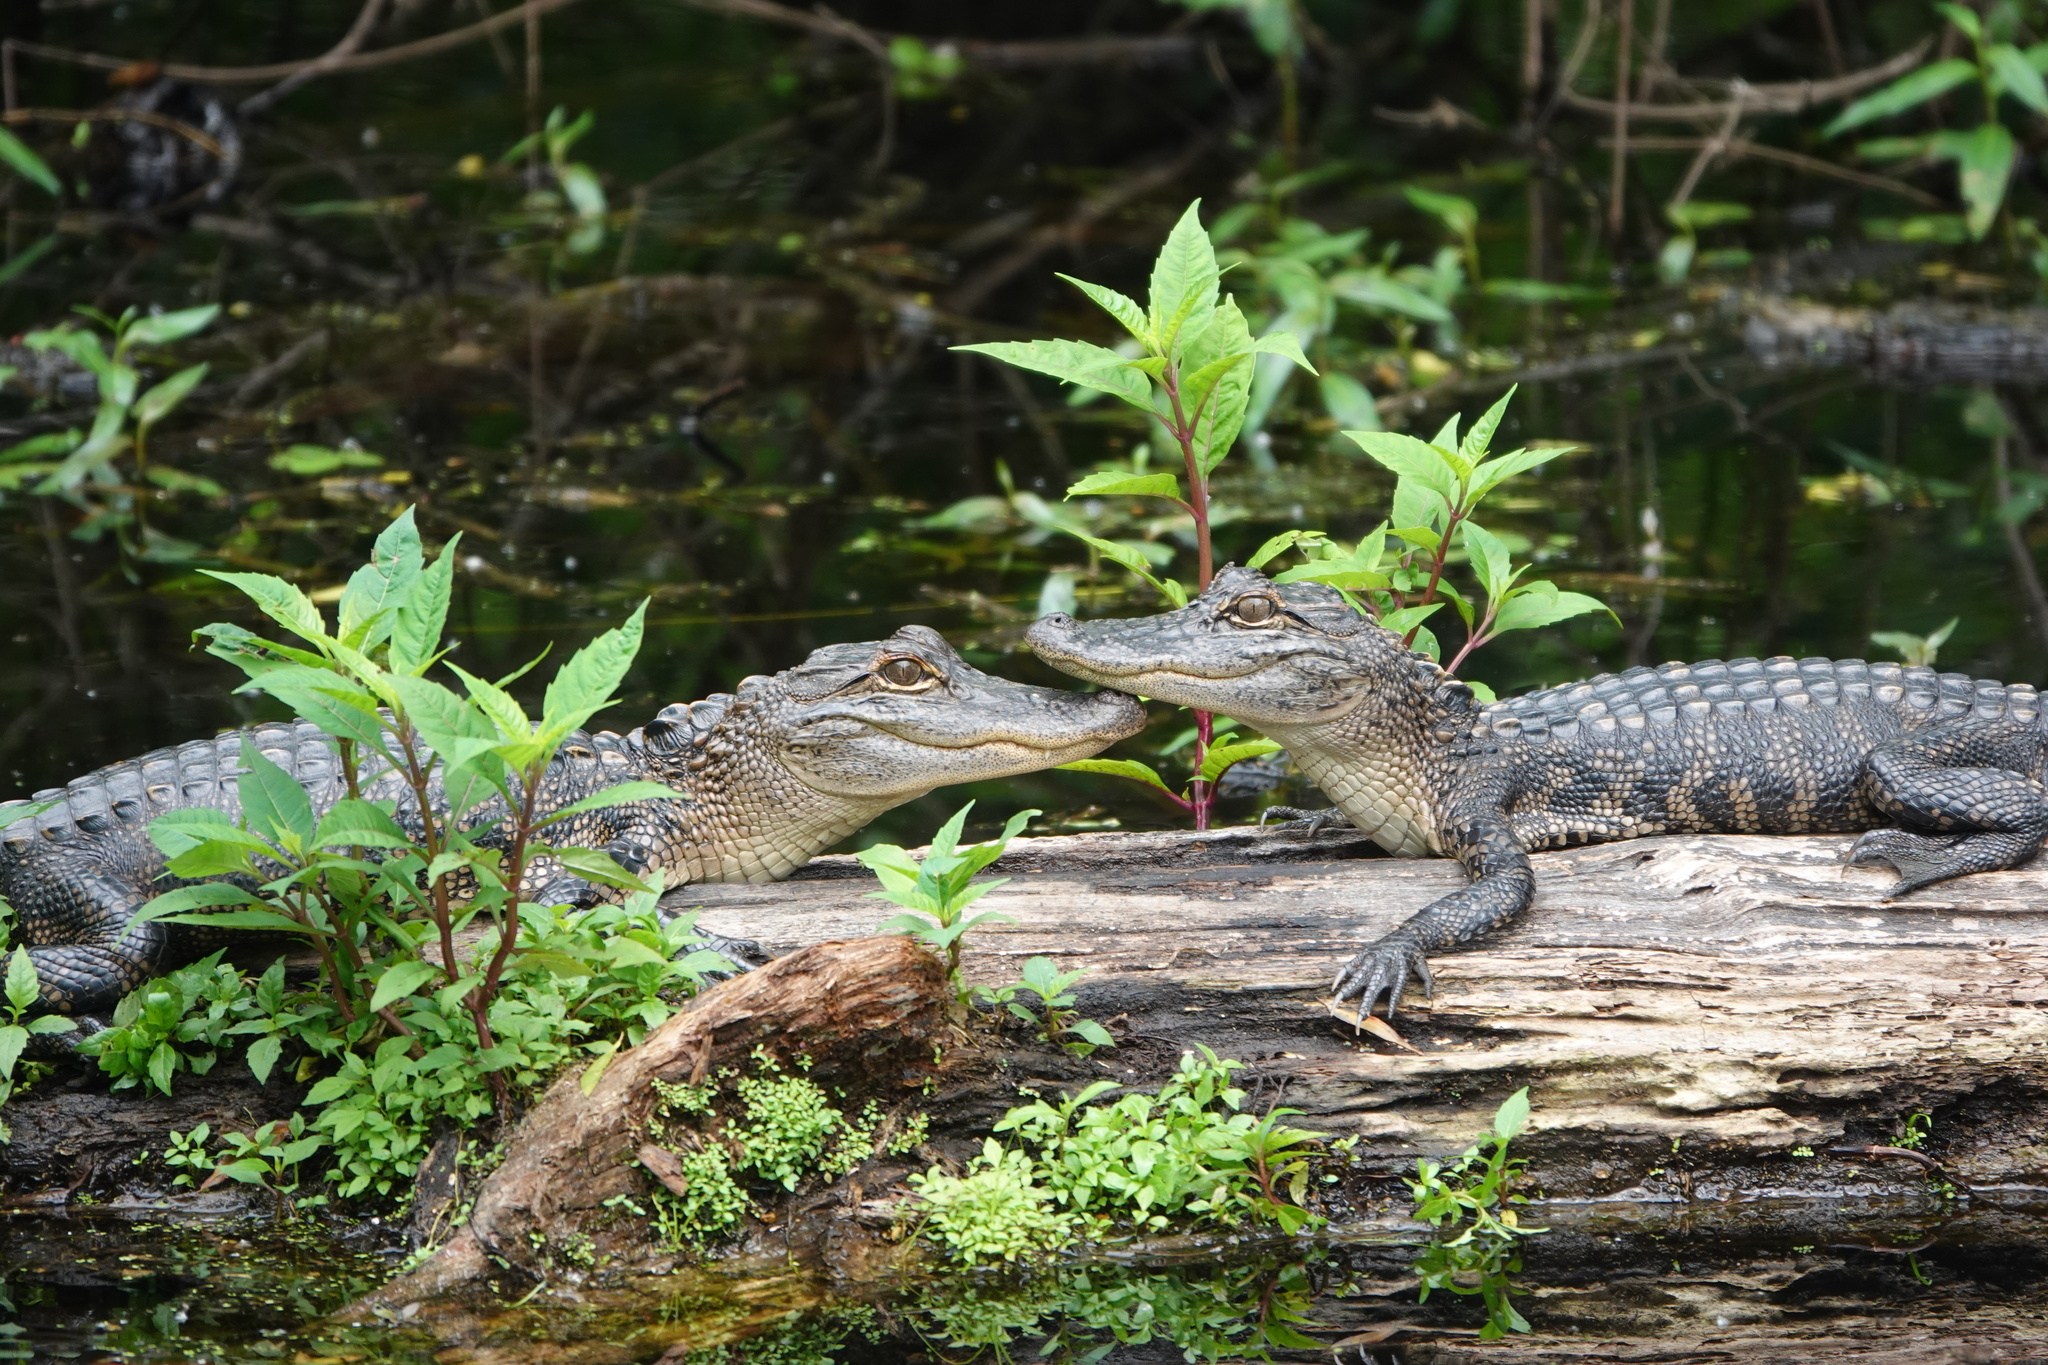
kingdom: Animalia
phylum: Chordata
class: Crocodylia
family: Alligatoridae
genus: Alligator
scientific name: Alligator mississippiensis
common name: American alligator
